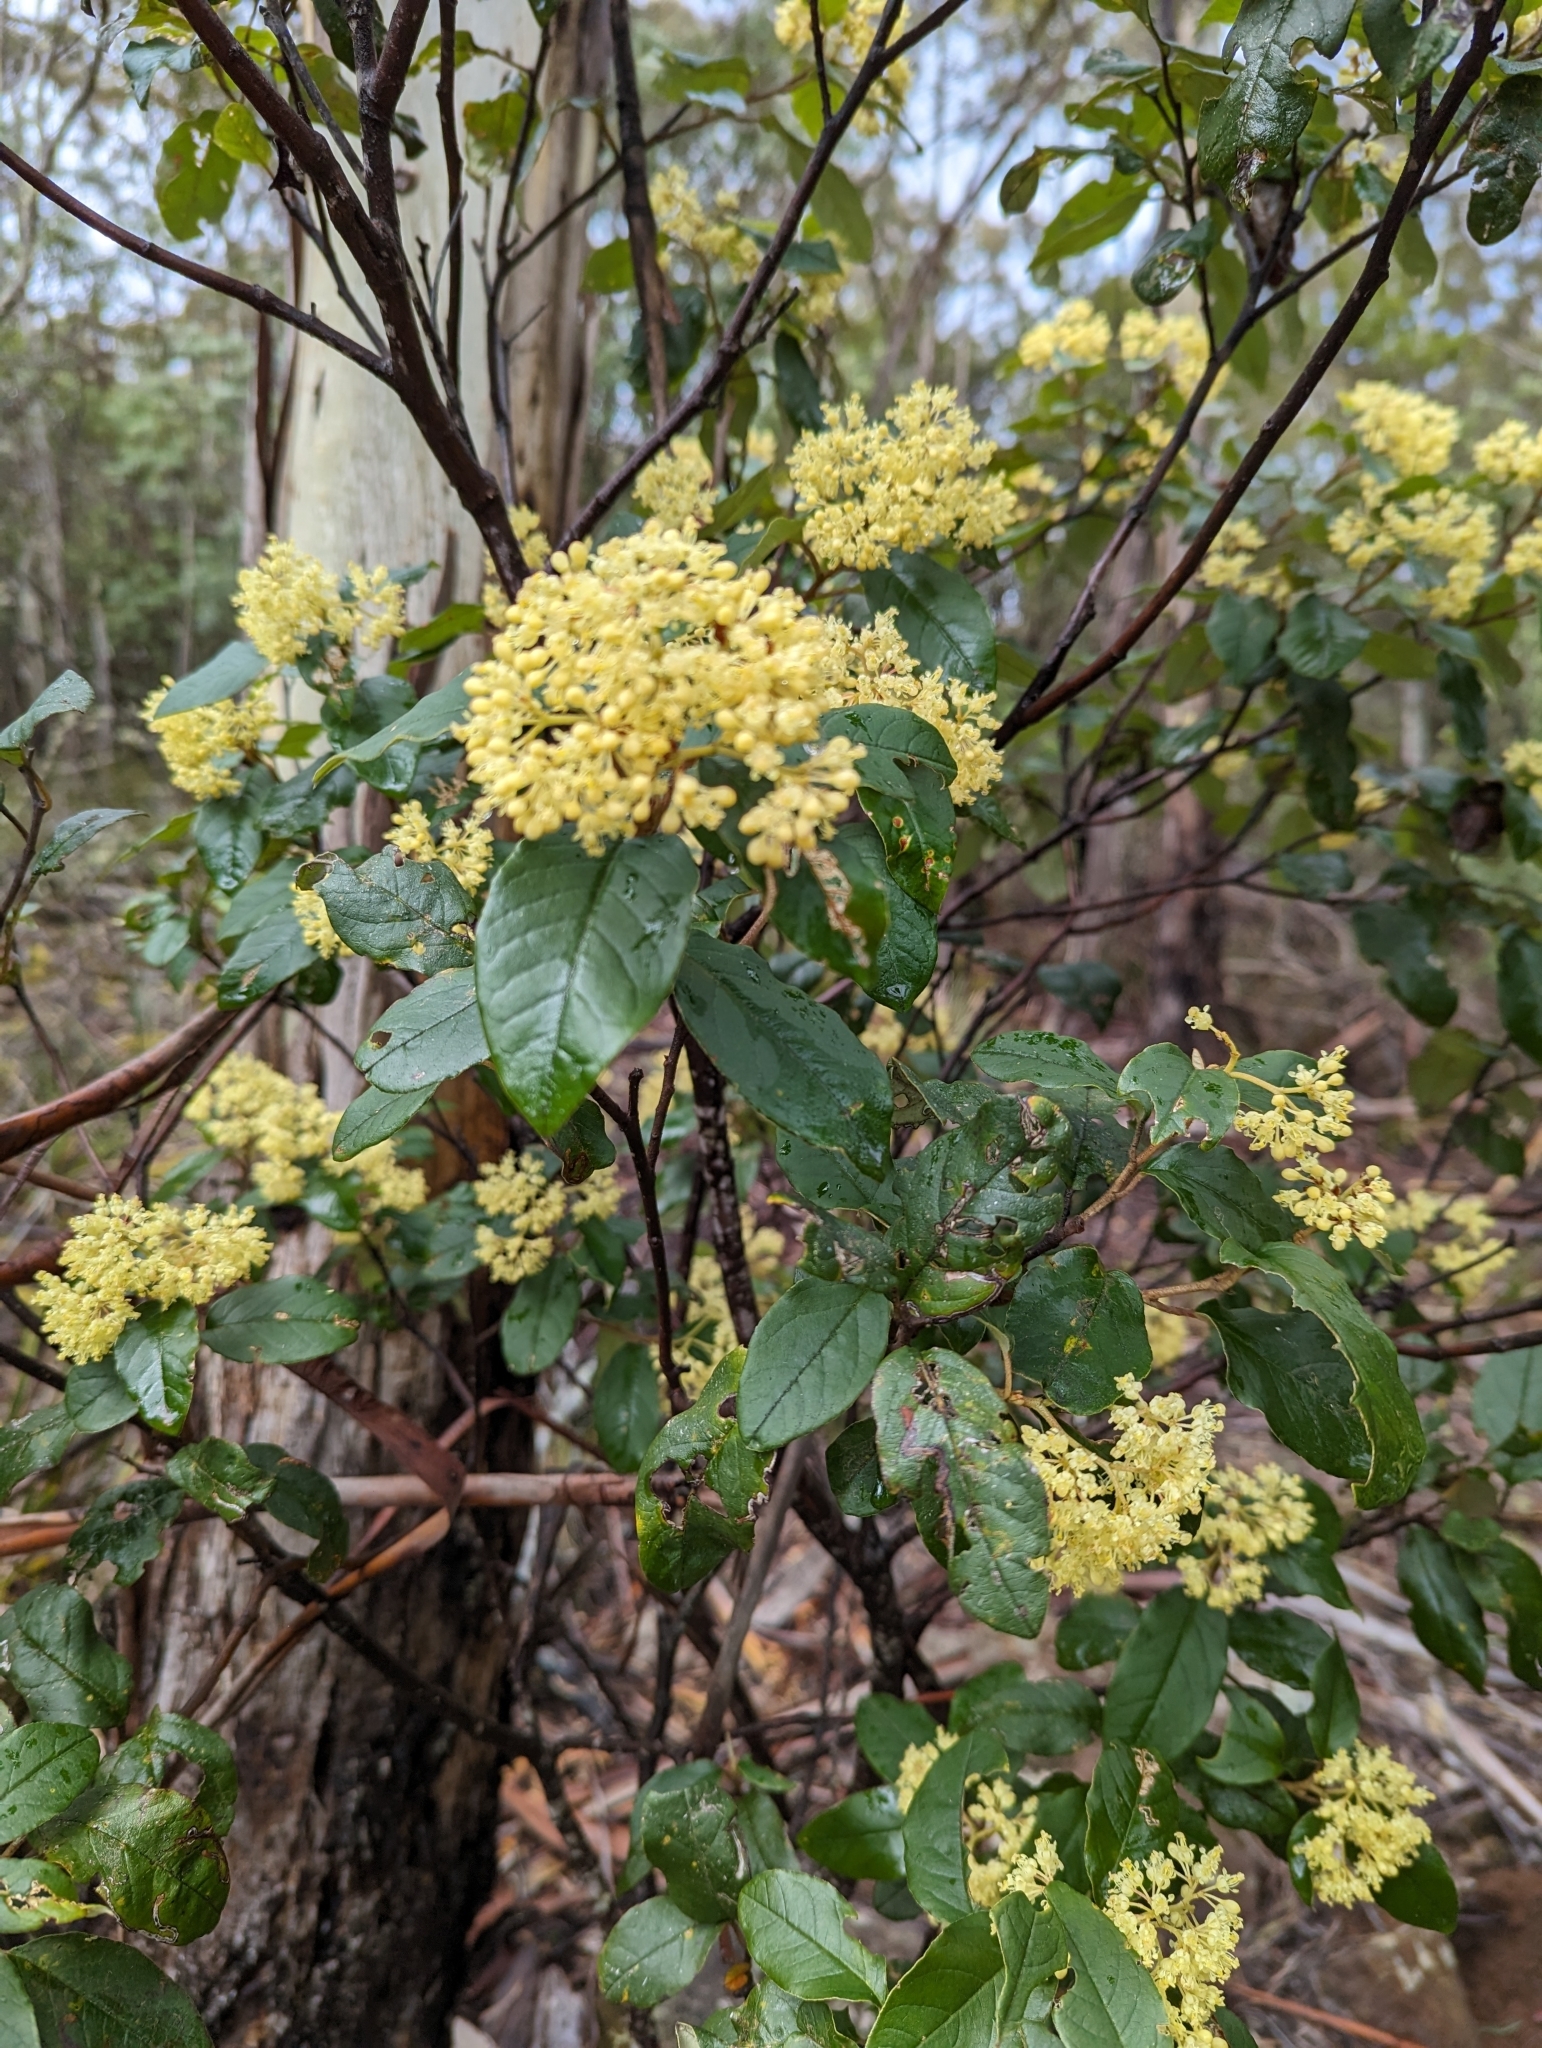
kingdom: Plantae
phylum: Tracheophyta
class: Magnoliopsida
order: Rosales
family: Rhamnaceae
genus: Pomaderris
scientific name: Pomaderris elliptica
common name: Yellow-dogwood
